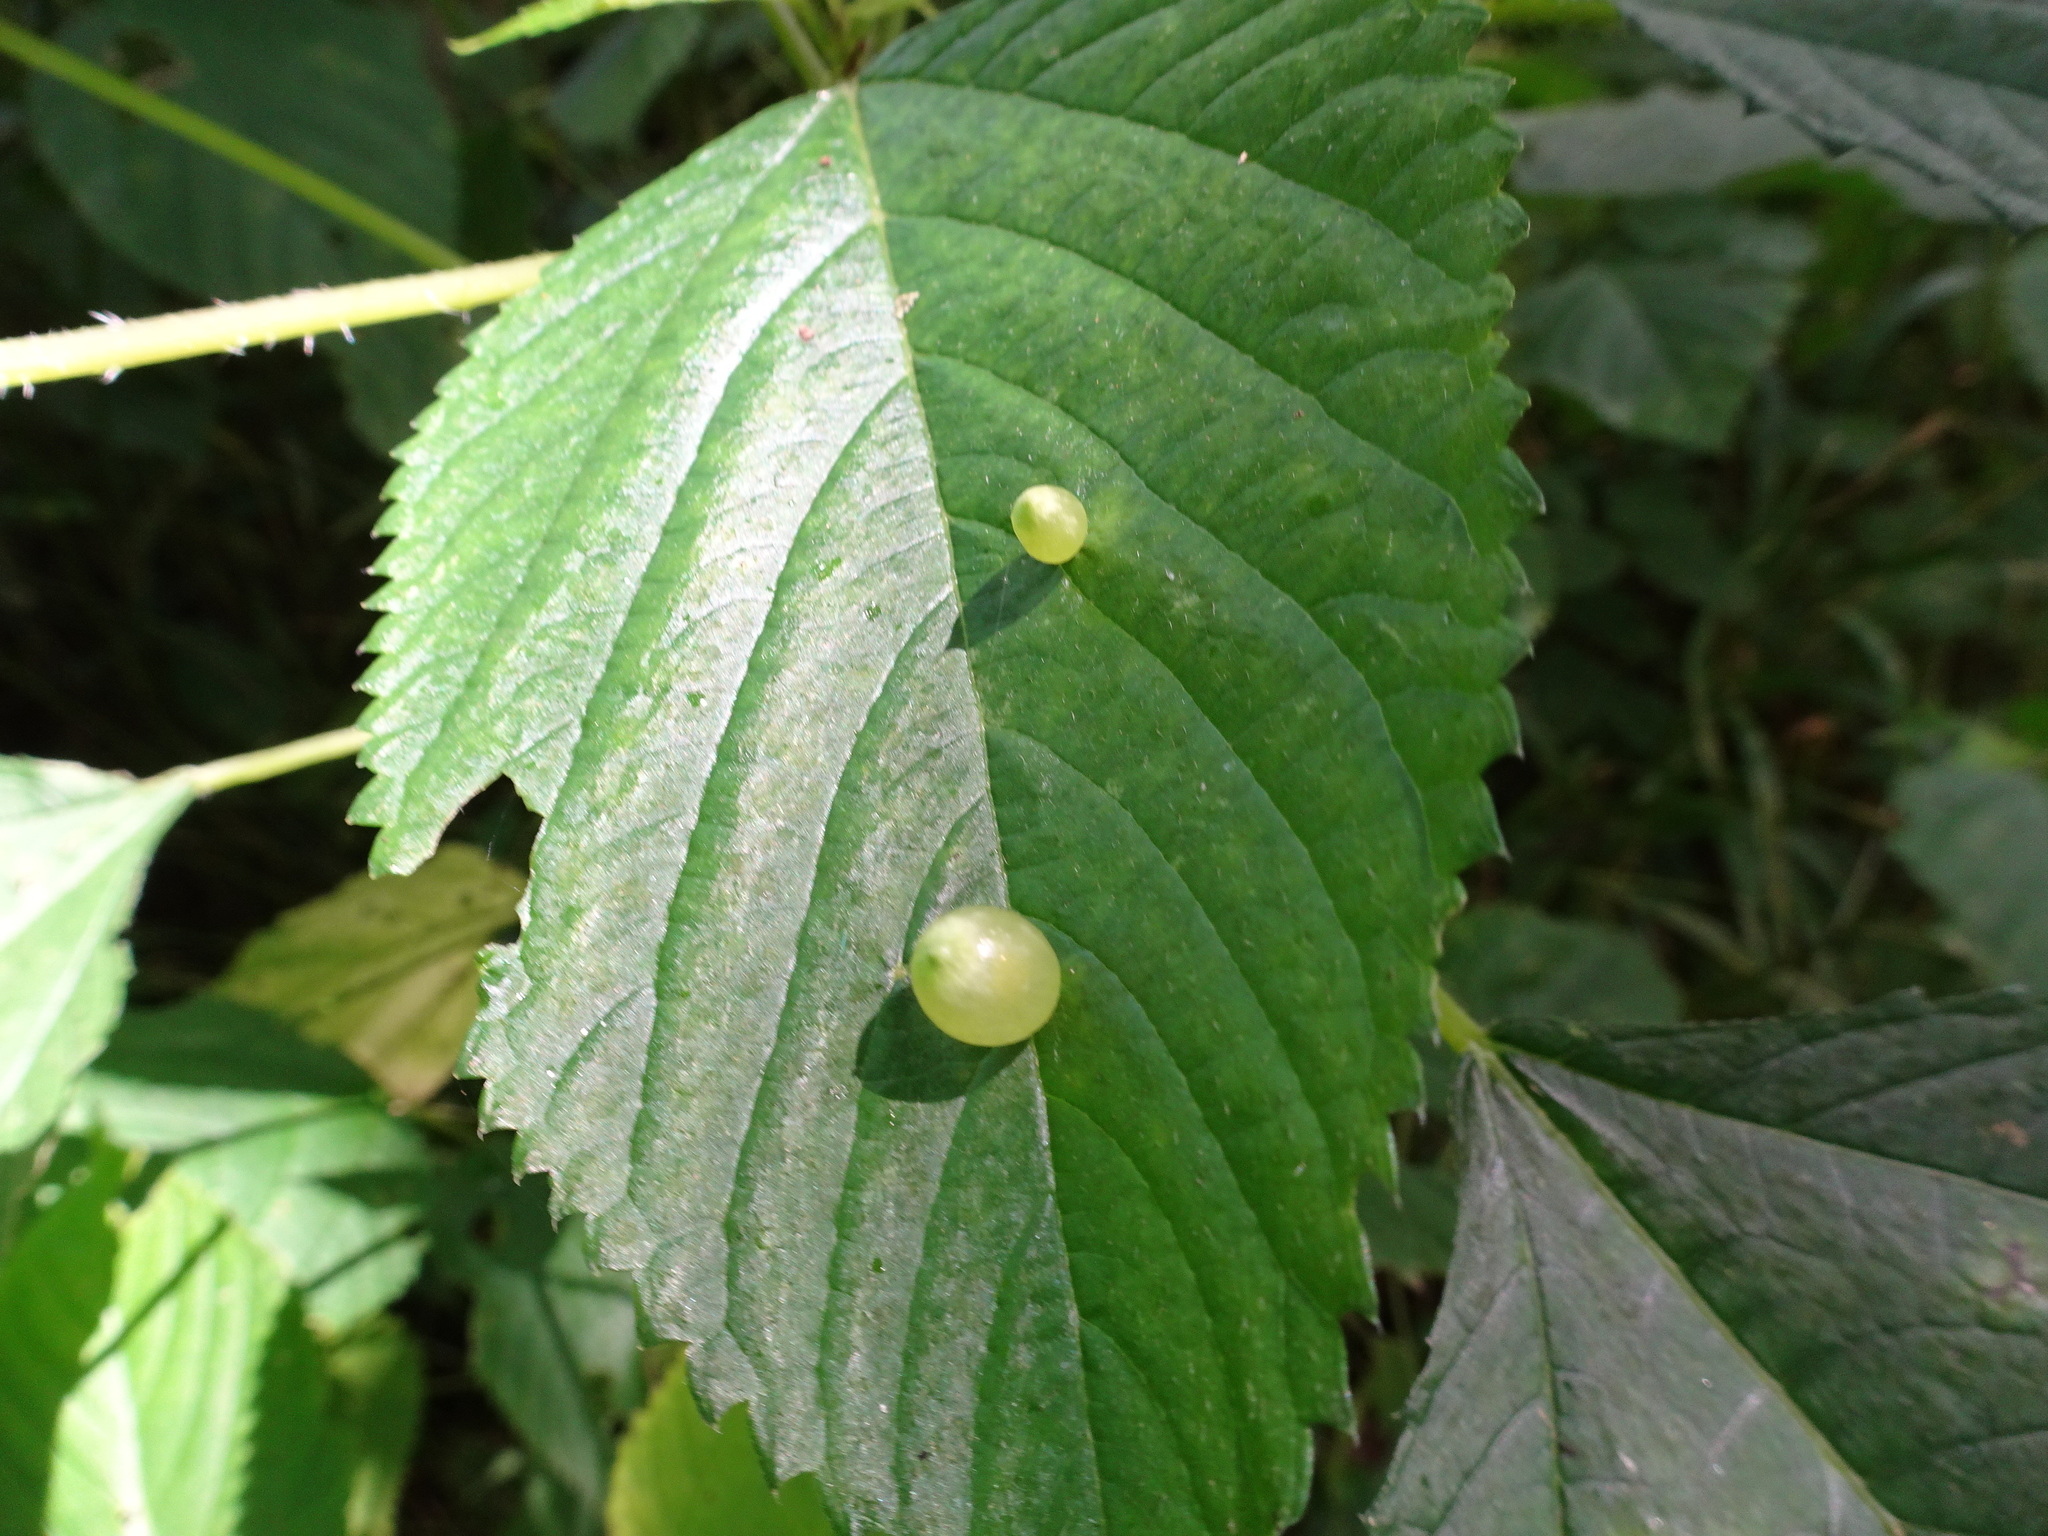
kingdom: Animalia
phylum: Arthropoda
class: Insecta
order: Diptera
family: Cecidomyiidae
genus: Dasineura
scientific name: Dasineura investita
